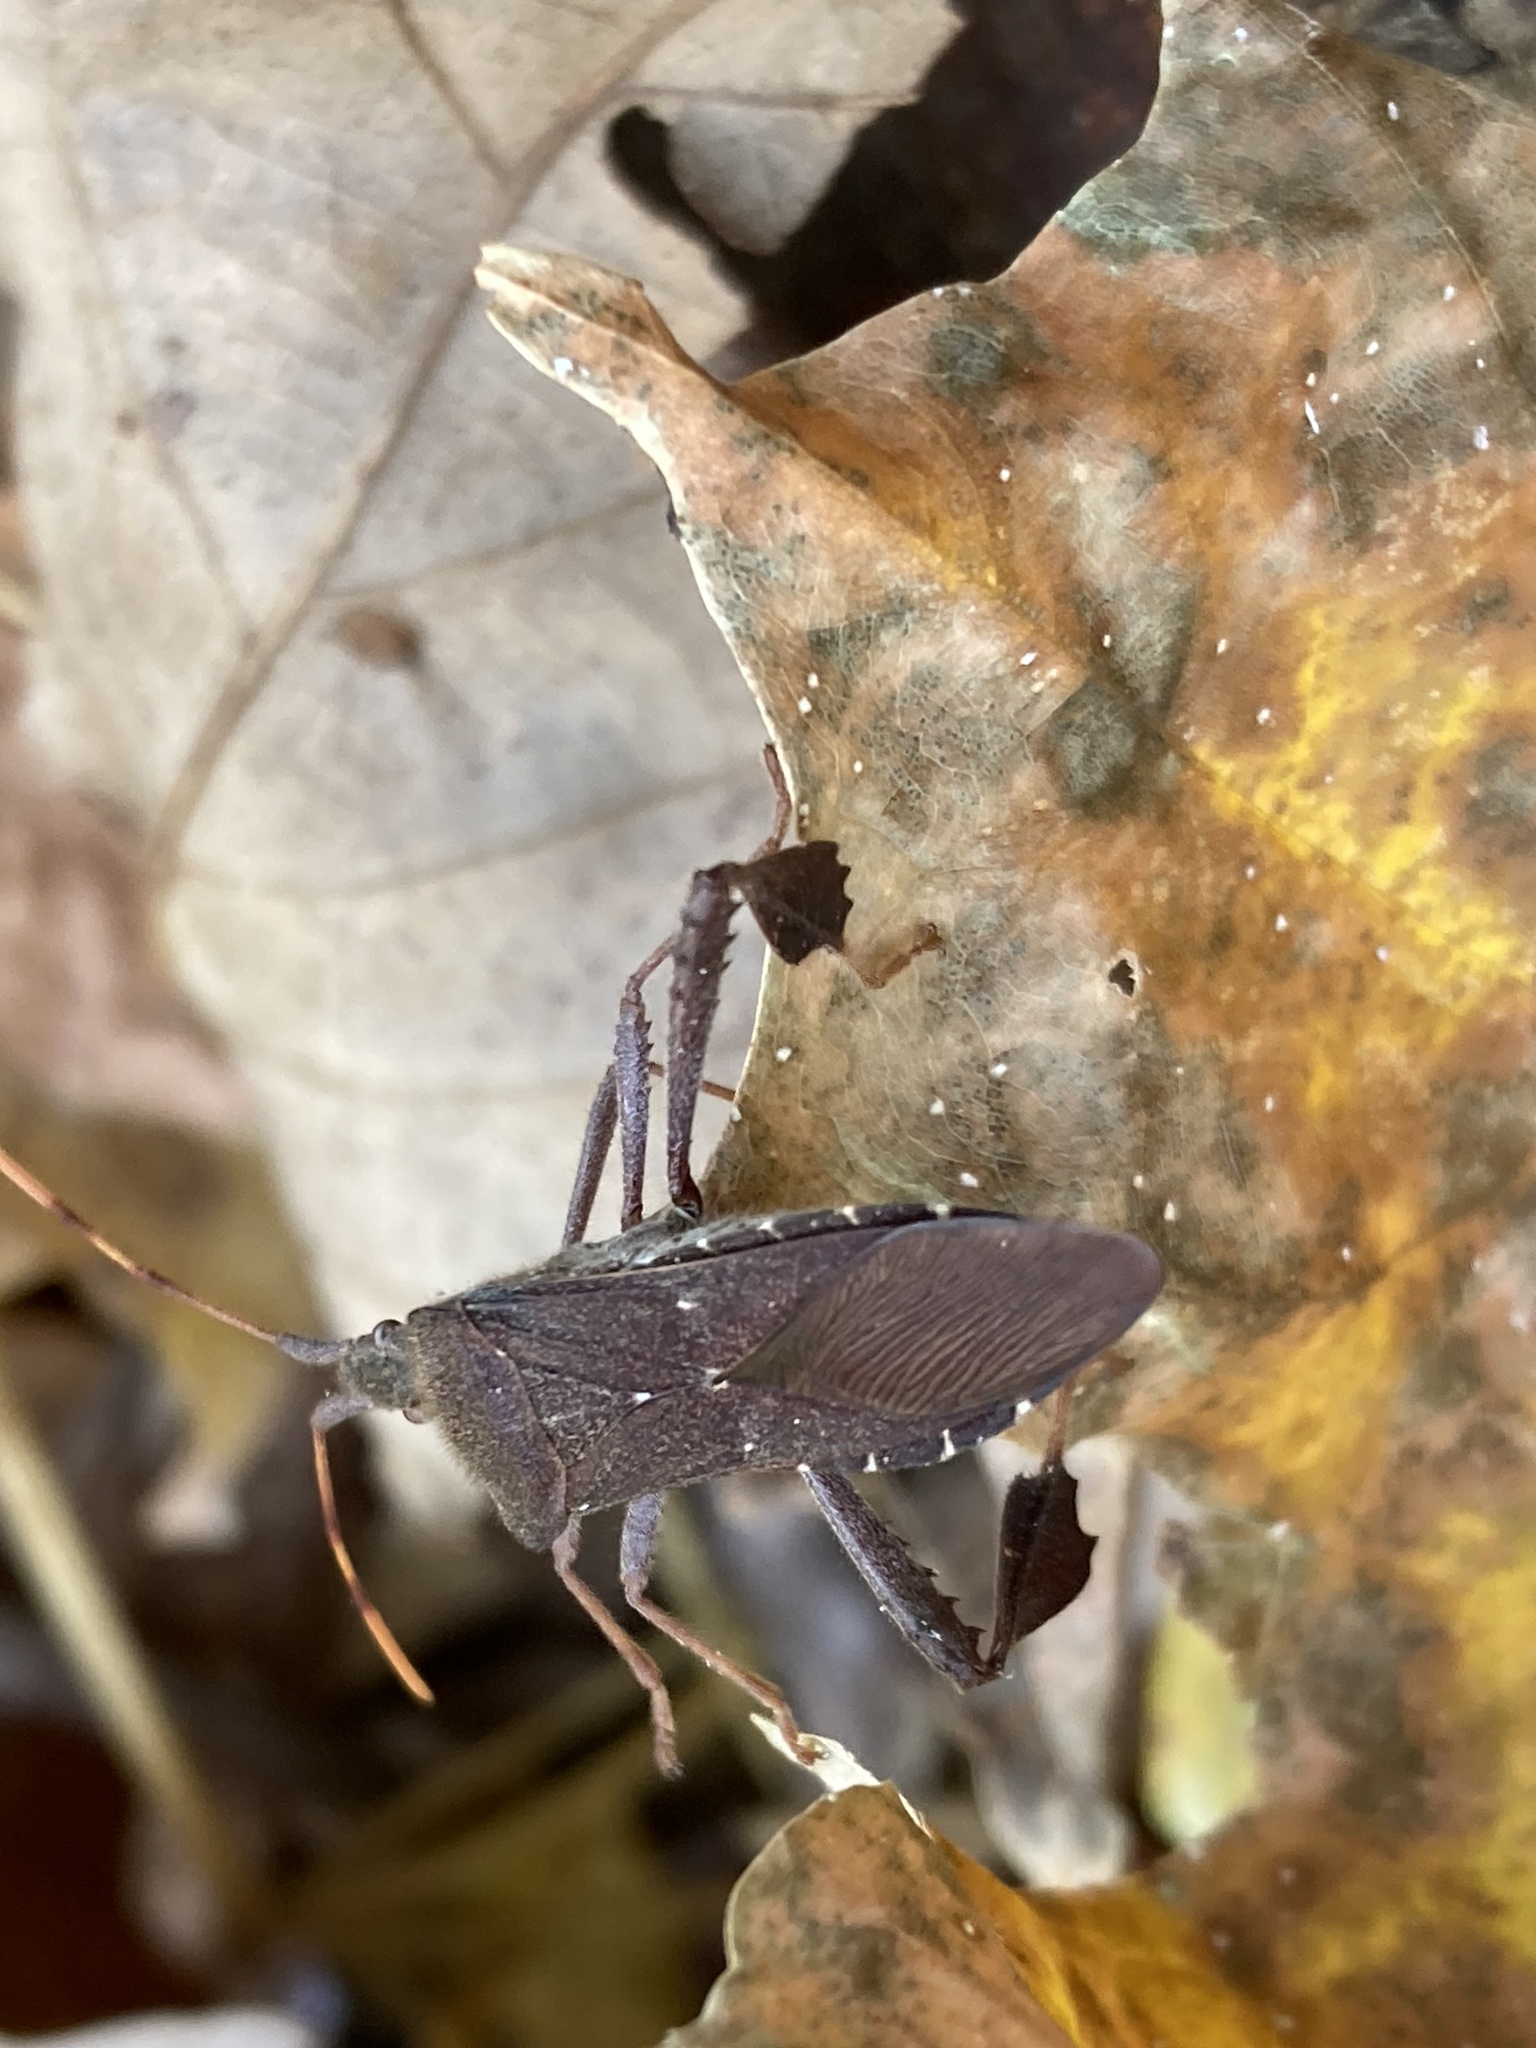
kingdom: Animalia
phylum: Arthropoda
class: Insecta
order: Hemiptera
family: Coreidae
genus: Leptoglossus
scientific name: Leptoglossus oppositus
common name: Northern leaf-footed bug
